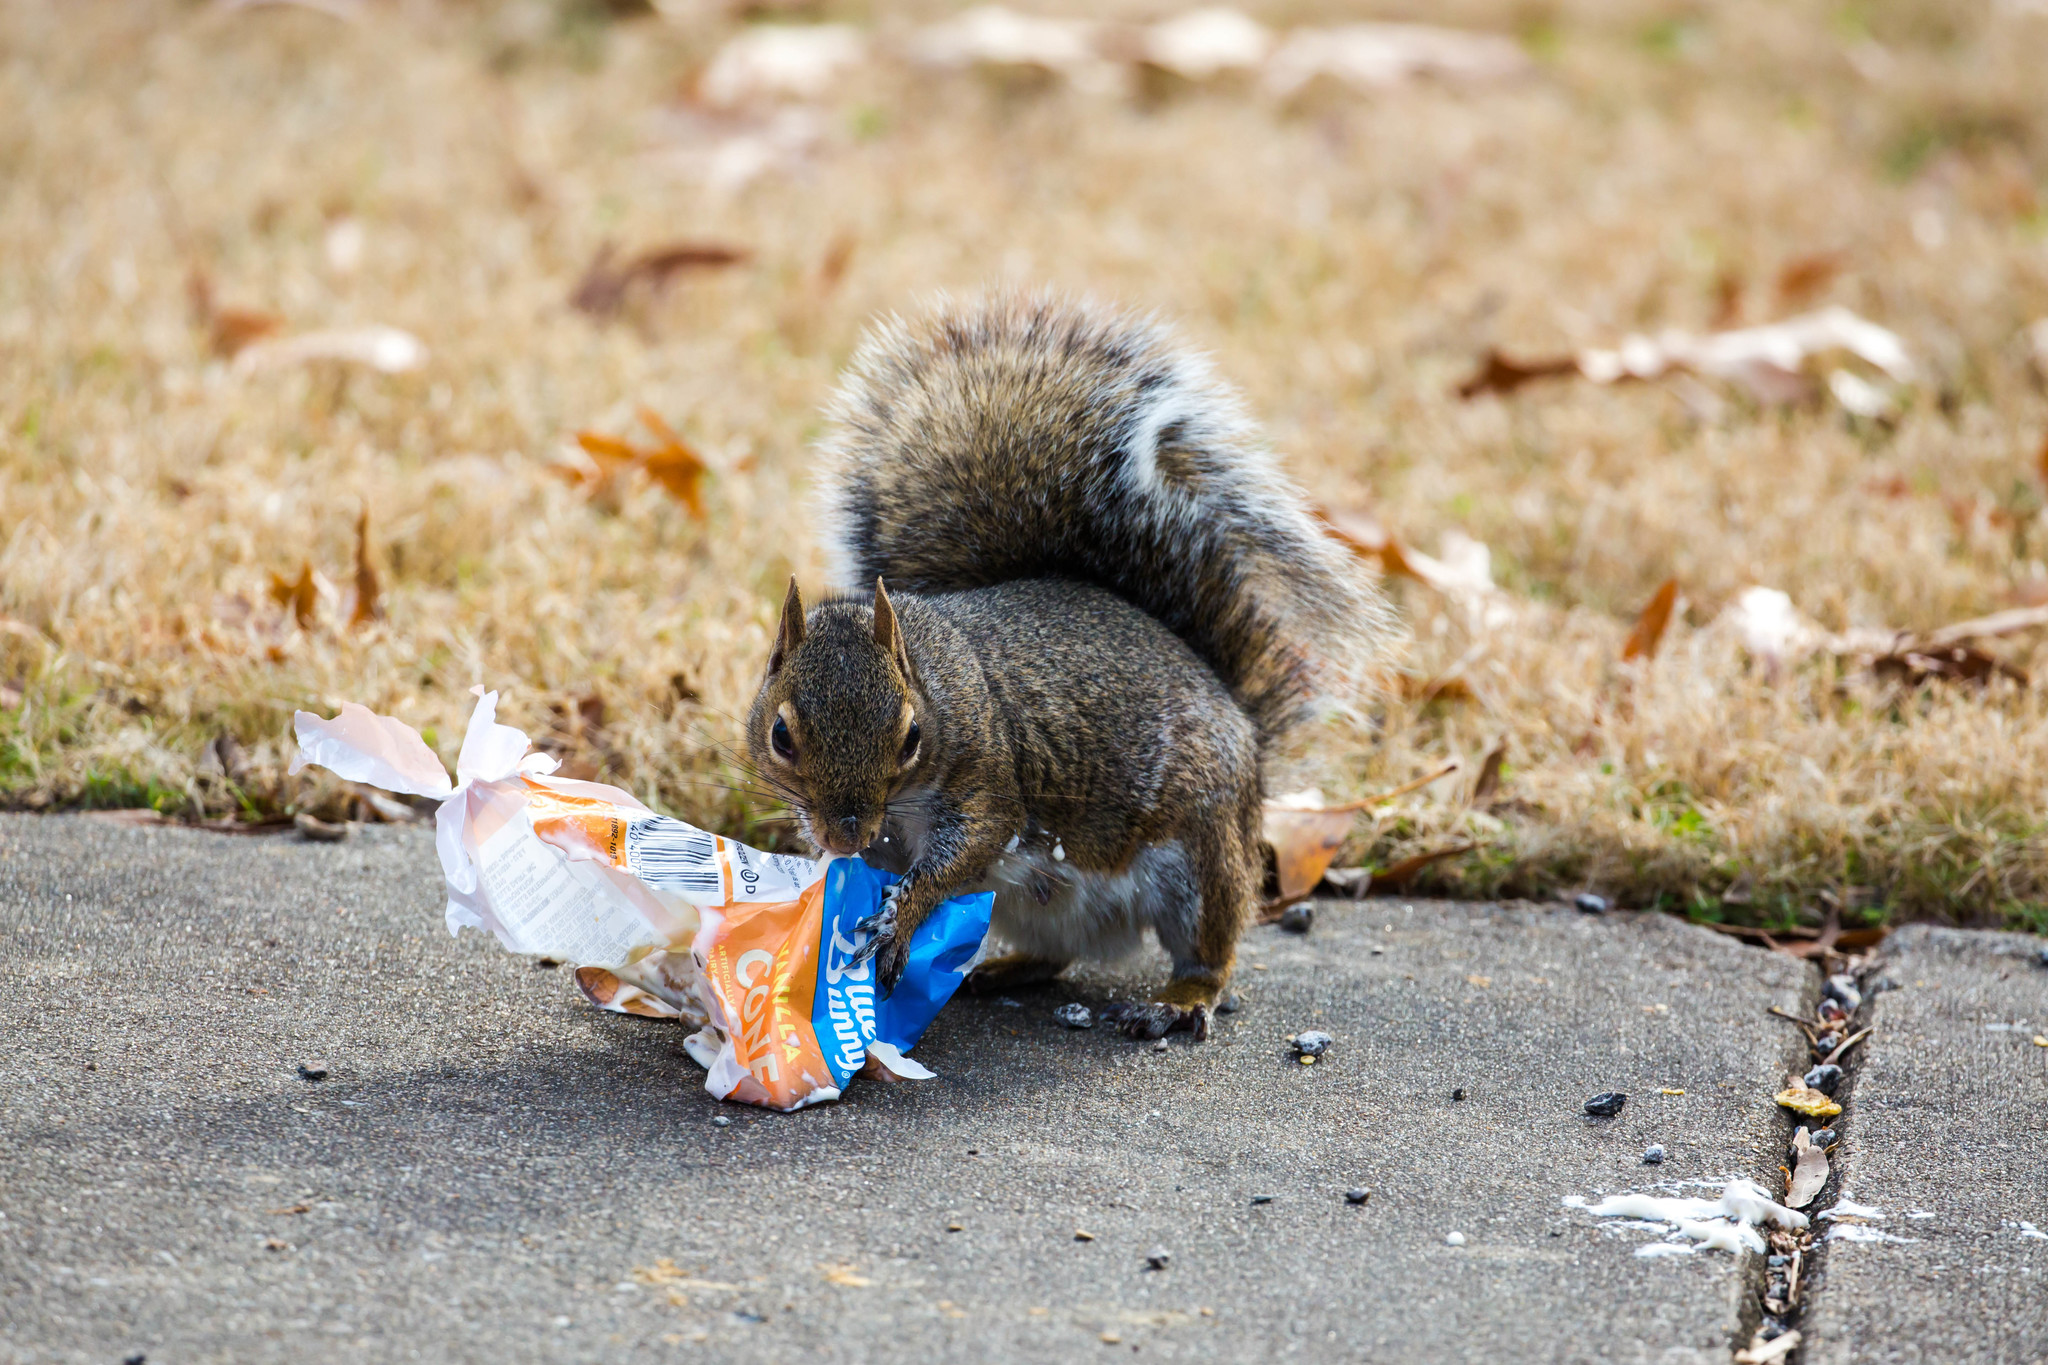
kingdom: Animalia
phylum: Chordata
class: Mammalia
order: Rodentia
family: Sciuridae
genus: Sciurus
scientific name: Sciurus carolinensis
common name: Eastern gray squirrel
